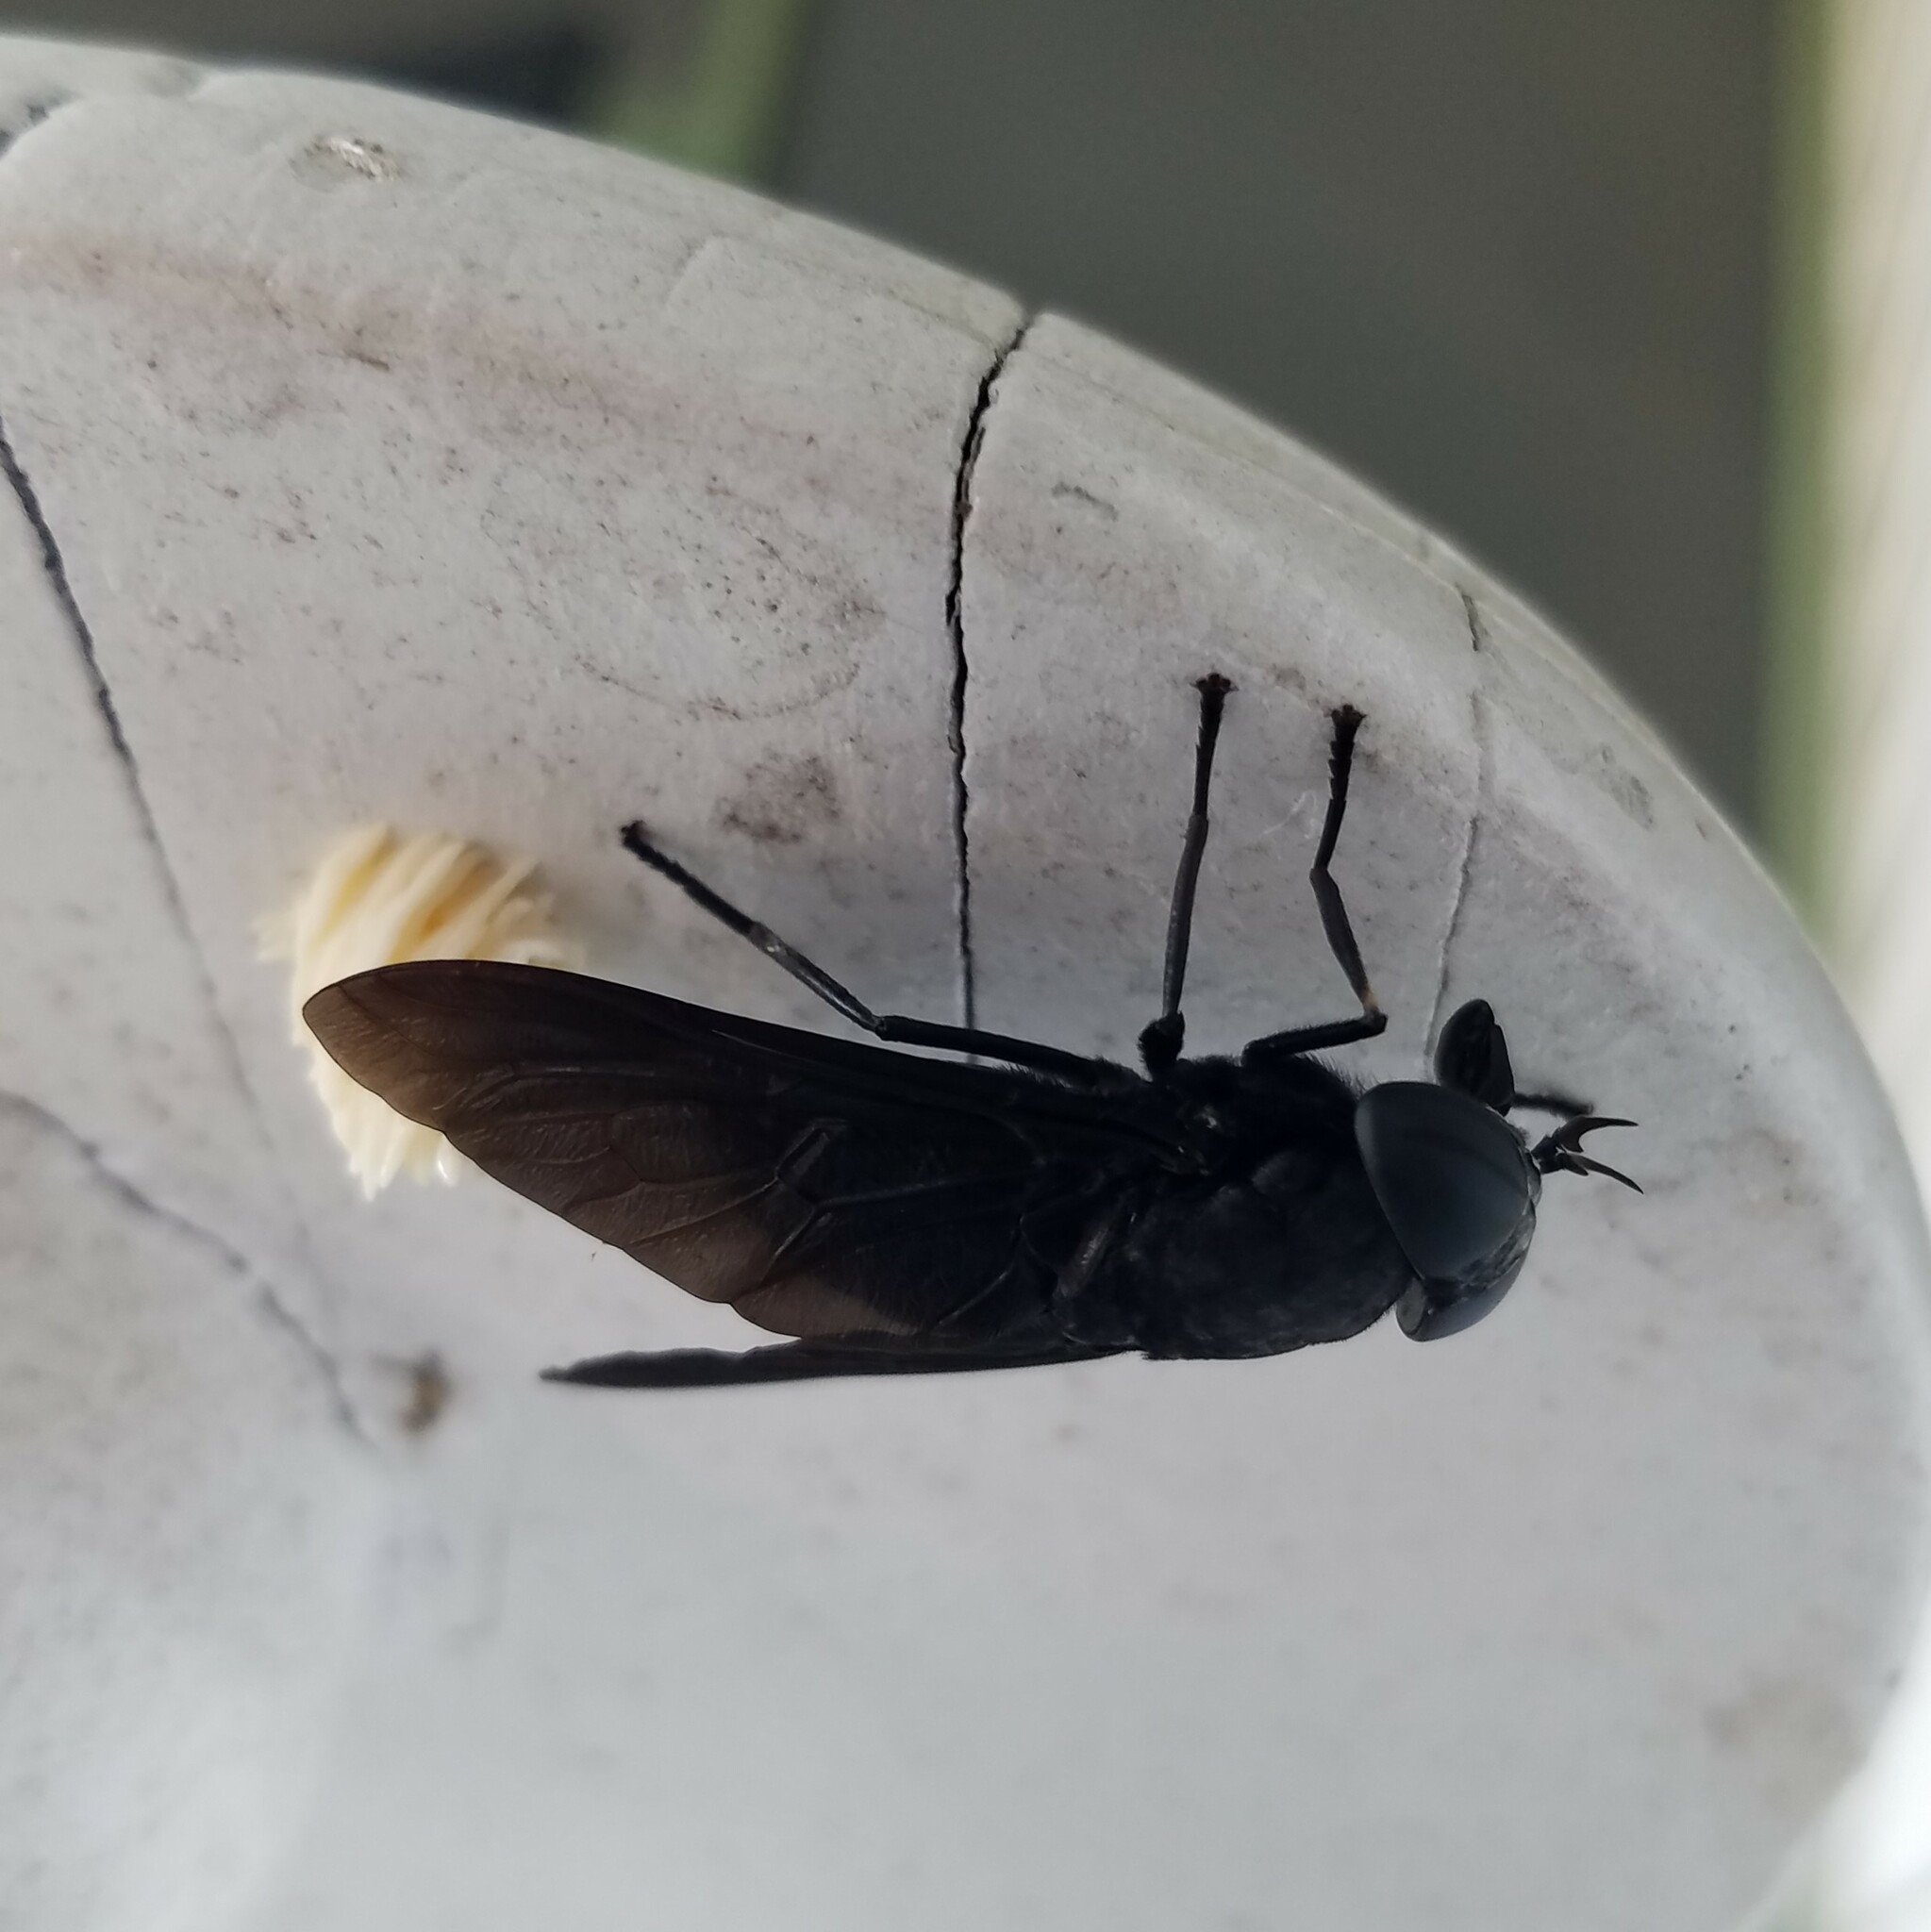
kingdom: Animalia
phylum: Arthropoda
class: Insecta
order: Diptera
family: Tabanidae
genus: Tabanus
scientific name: Tabanus atratus
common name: Black horse fly
